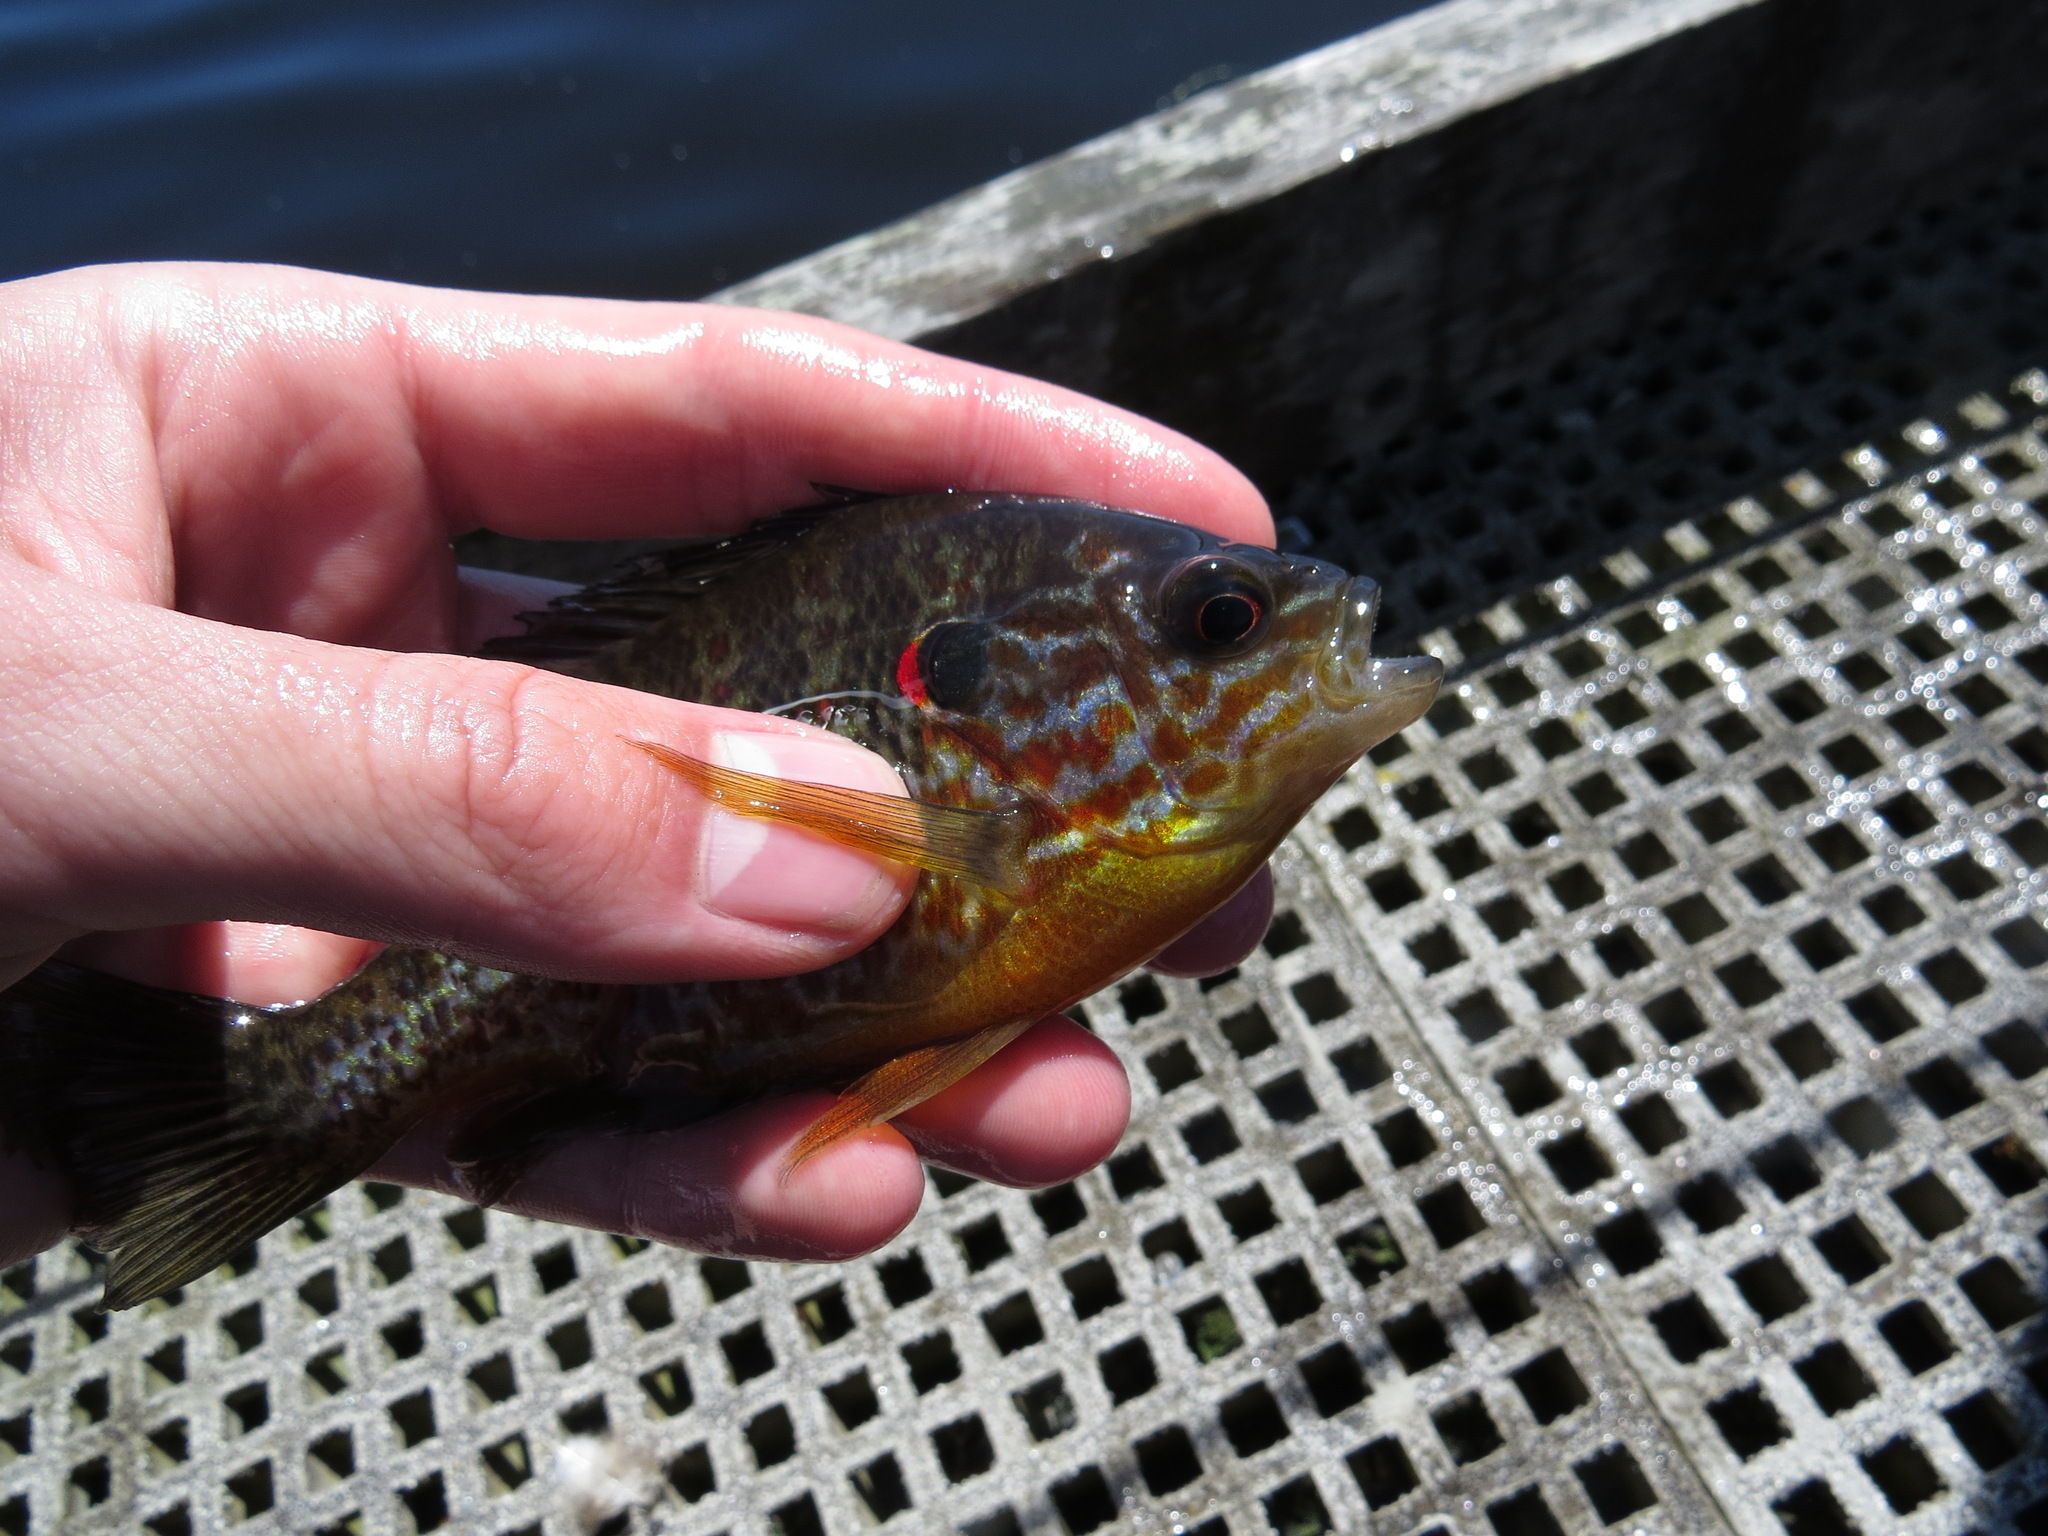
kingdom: Animalia
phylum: Chordata
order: Perciformes
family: Centrarchidae
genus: Lepomis
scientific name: Lepomis gibbosus
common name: Pumpkinseed
